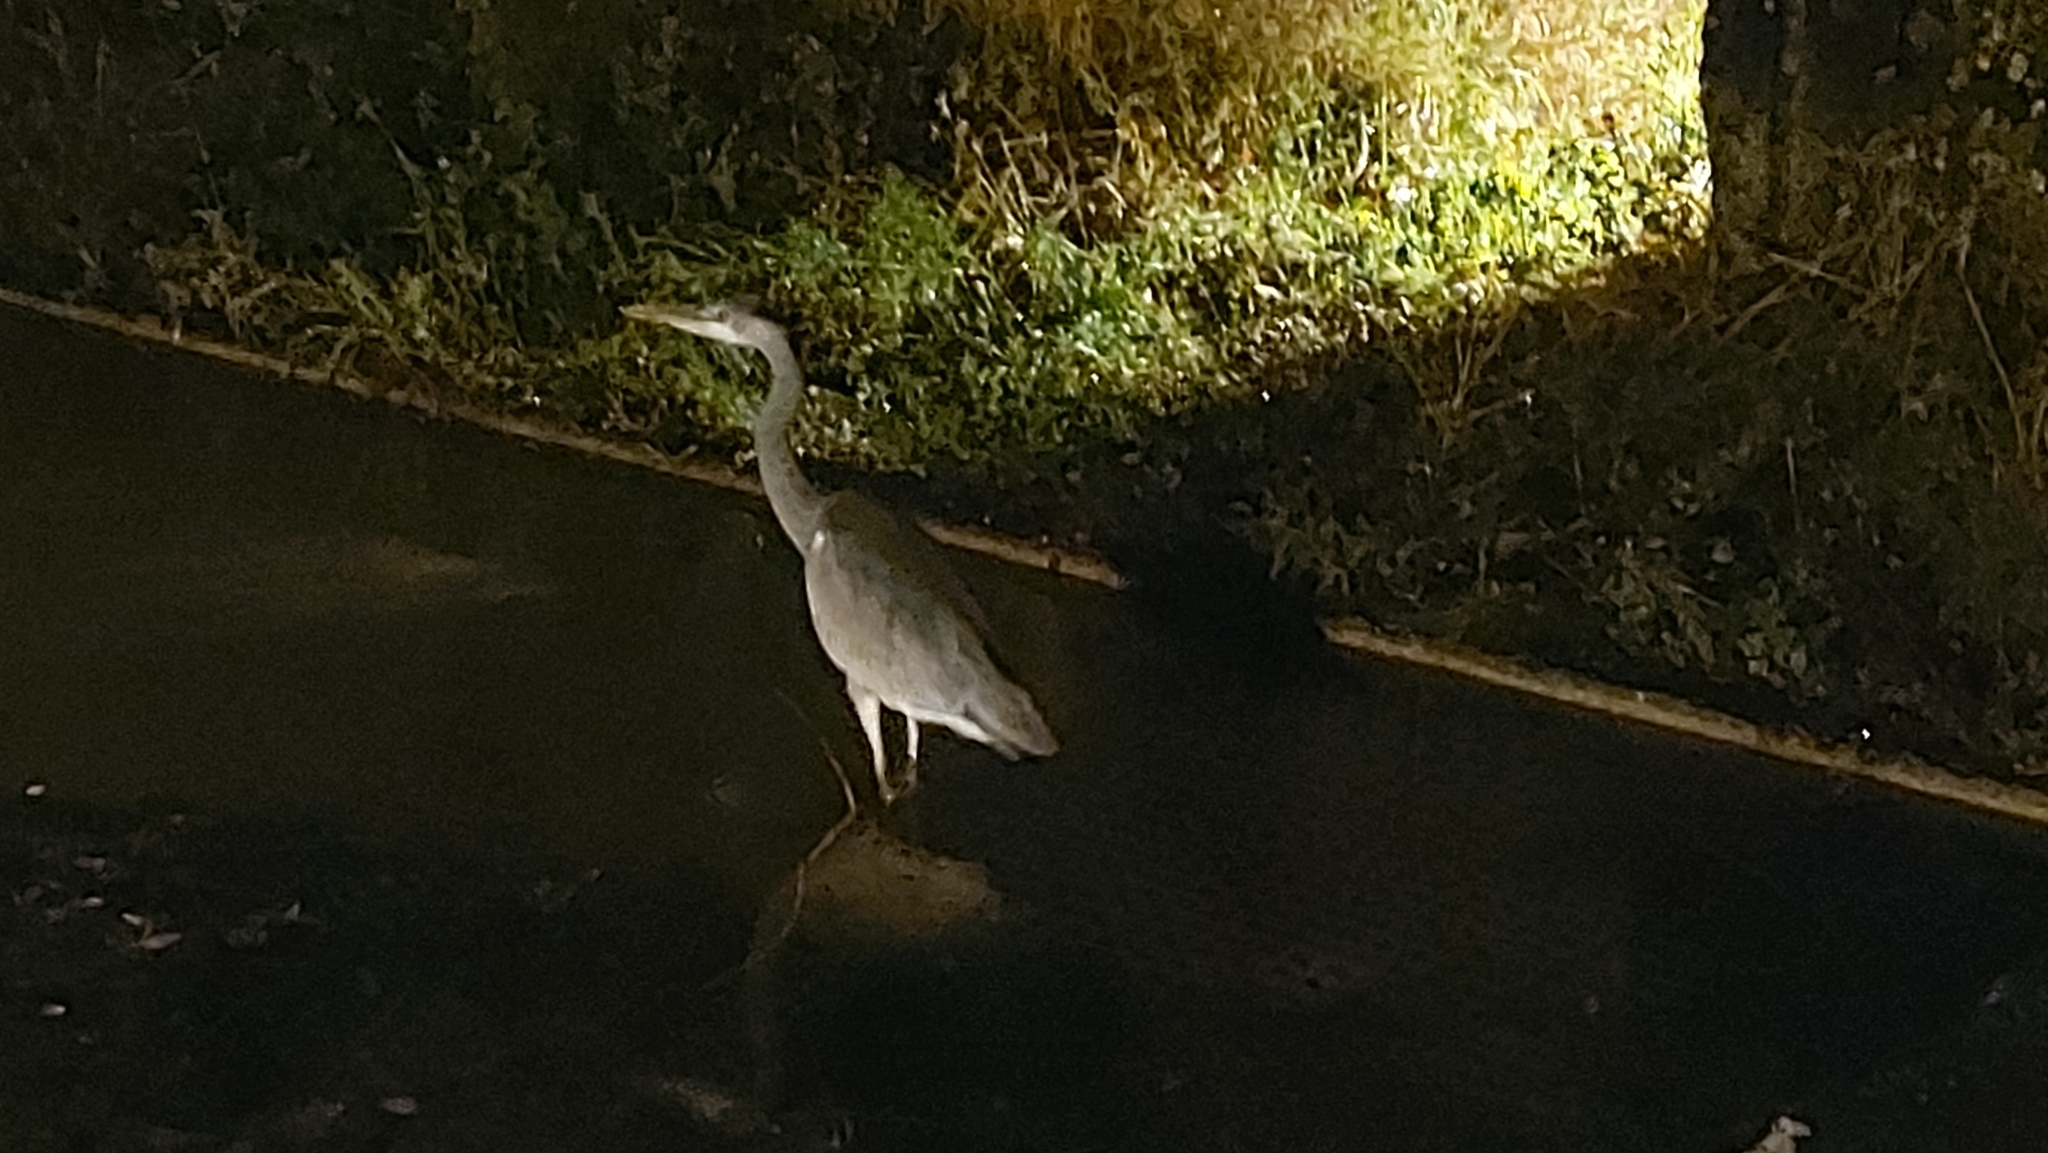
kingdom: Animalia
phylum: Chordata
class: Aves
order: Pelecaniformes
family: Ardeidae
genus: Ardea
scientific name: Ardea cinerea
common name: Grey heron
